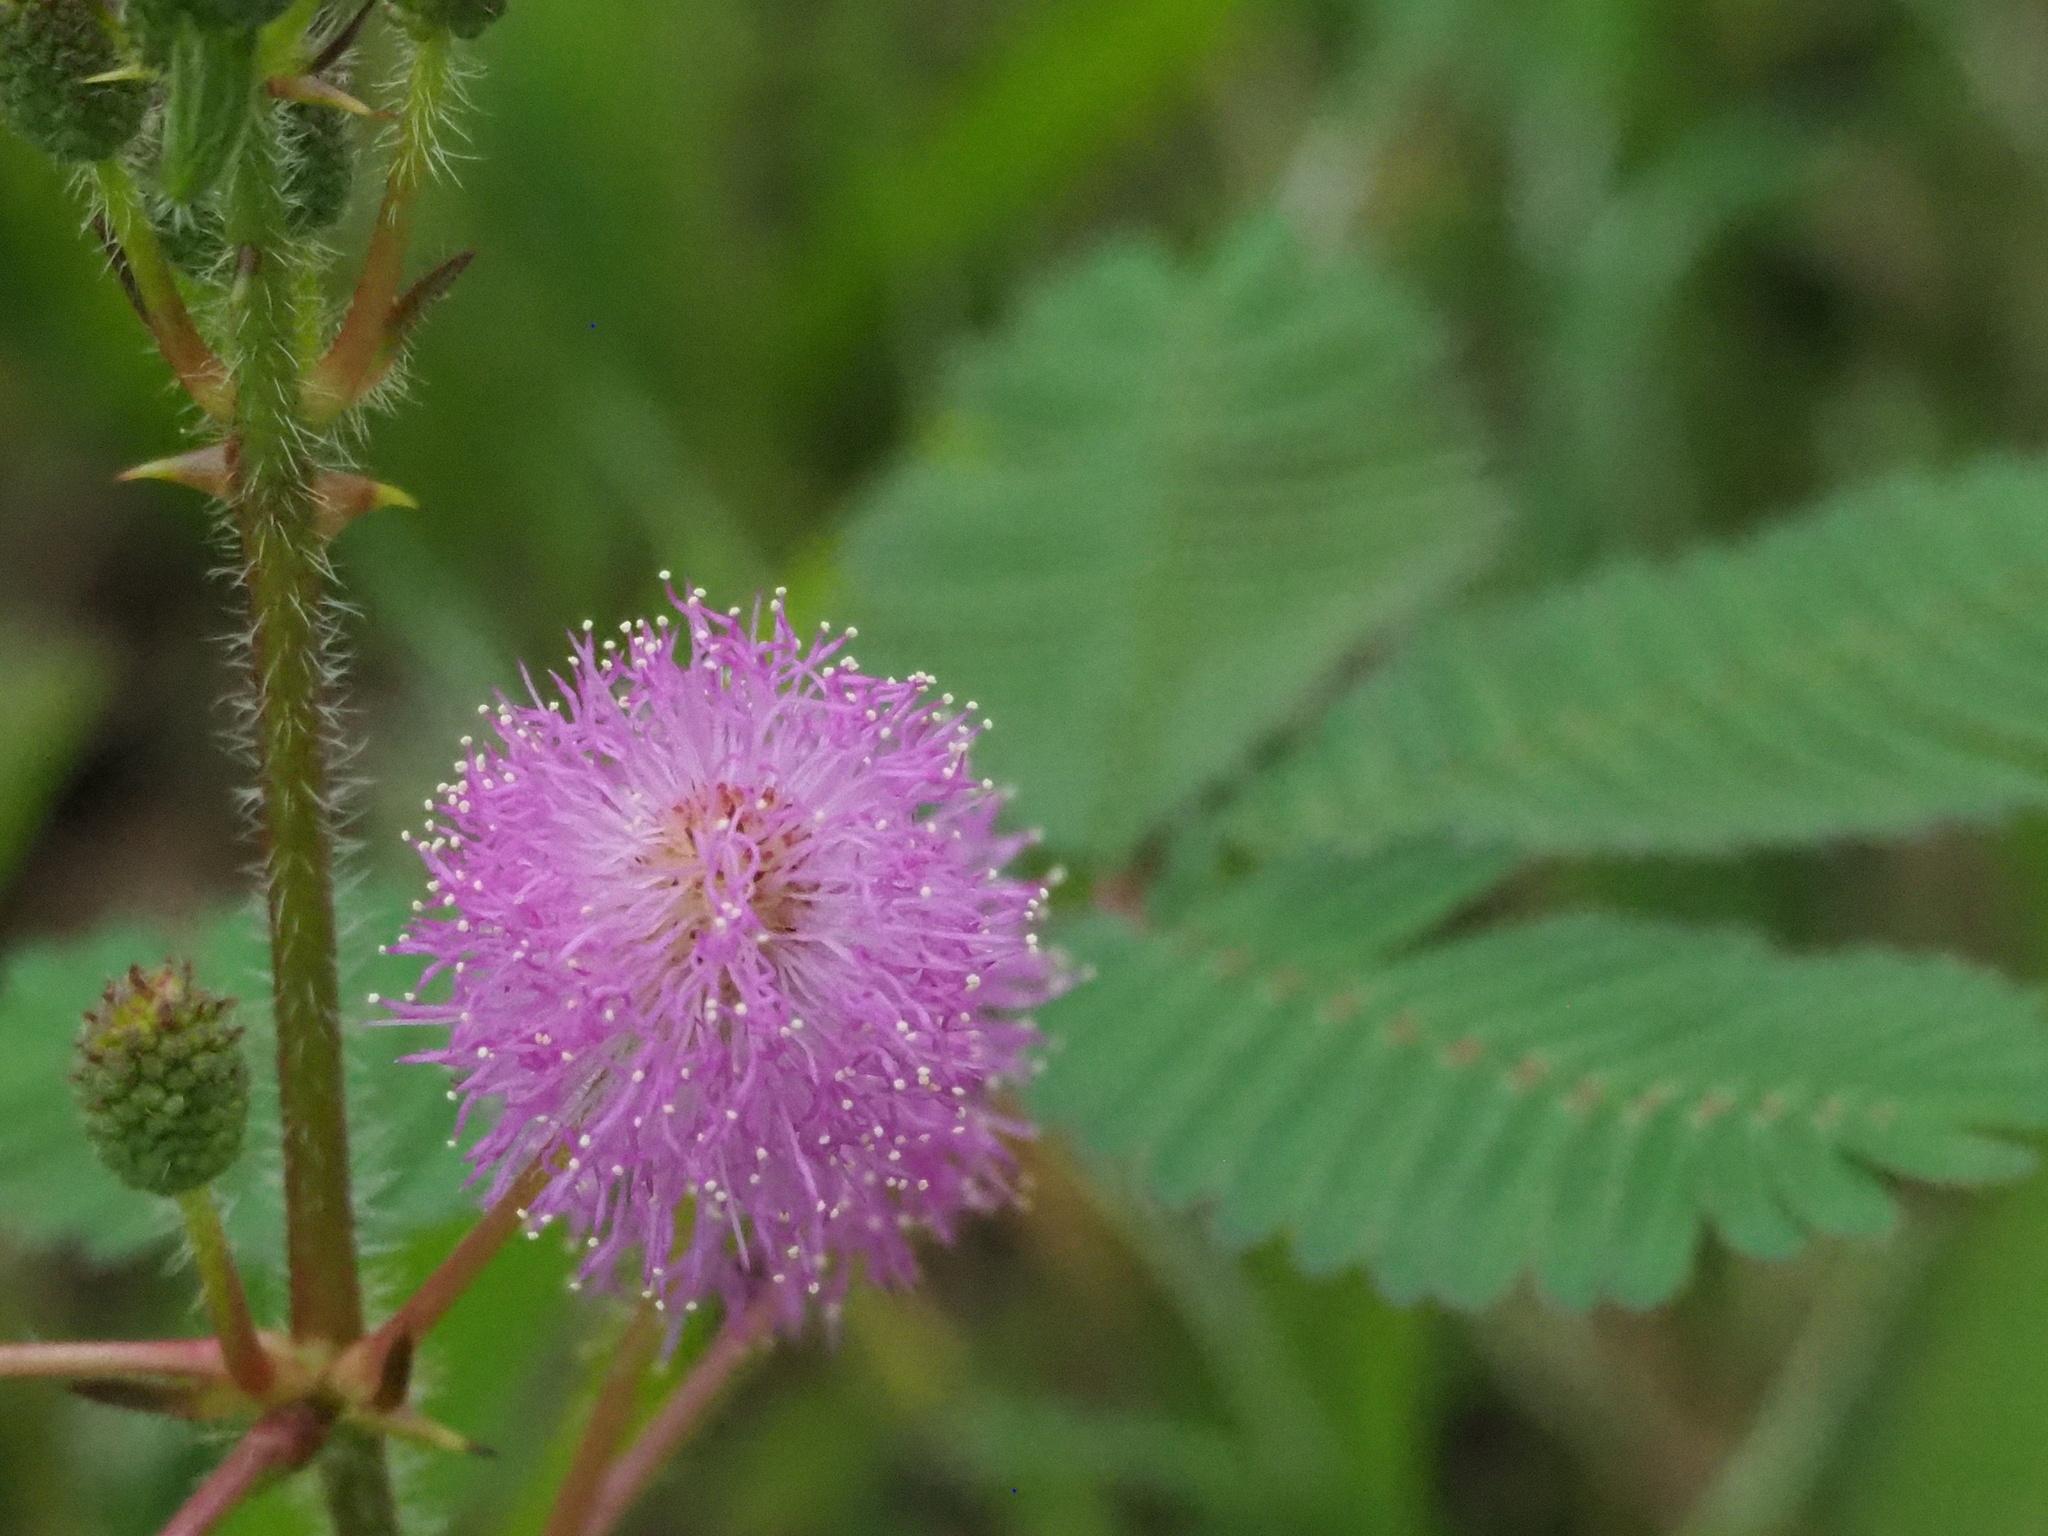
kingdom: Plantae
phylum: Tracheophyta
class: Magnoliopsida
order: Fabales
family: Fabaceae
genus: Mimosa
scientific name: Mimosa pudica
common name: Sensitive plant
